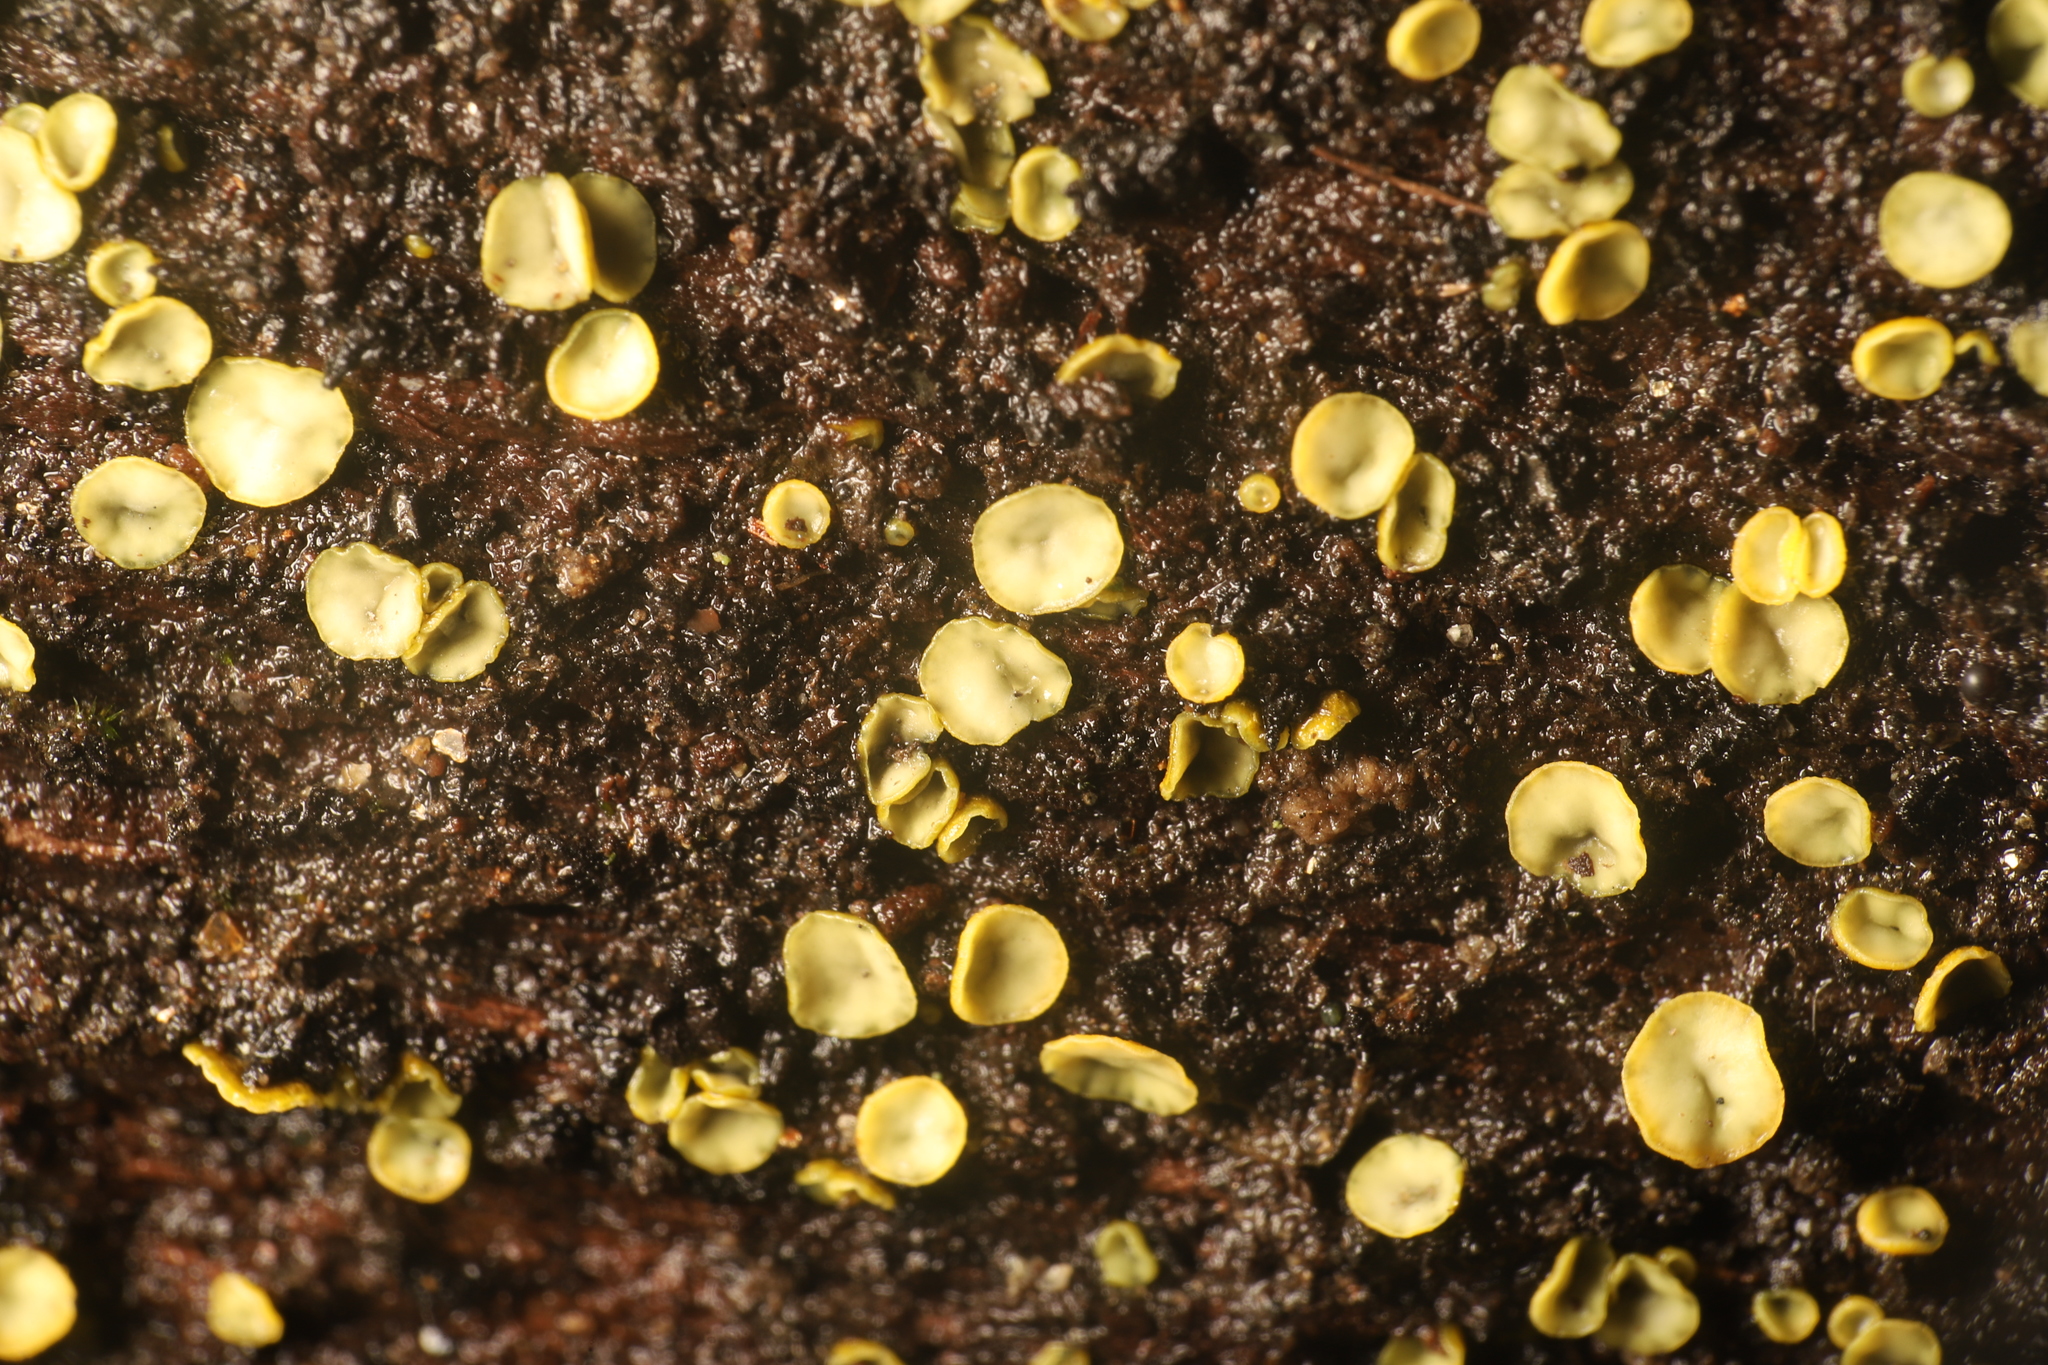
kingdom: Fungi
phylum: Ascomycota
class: Leotiomycetes
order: Helotiales
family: Chlorospleniaceae
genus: Chlorosplenium
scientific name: Chlorosplenium chlora
